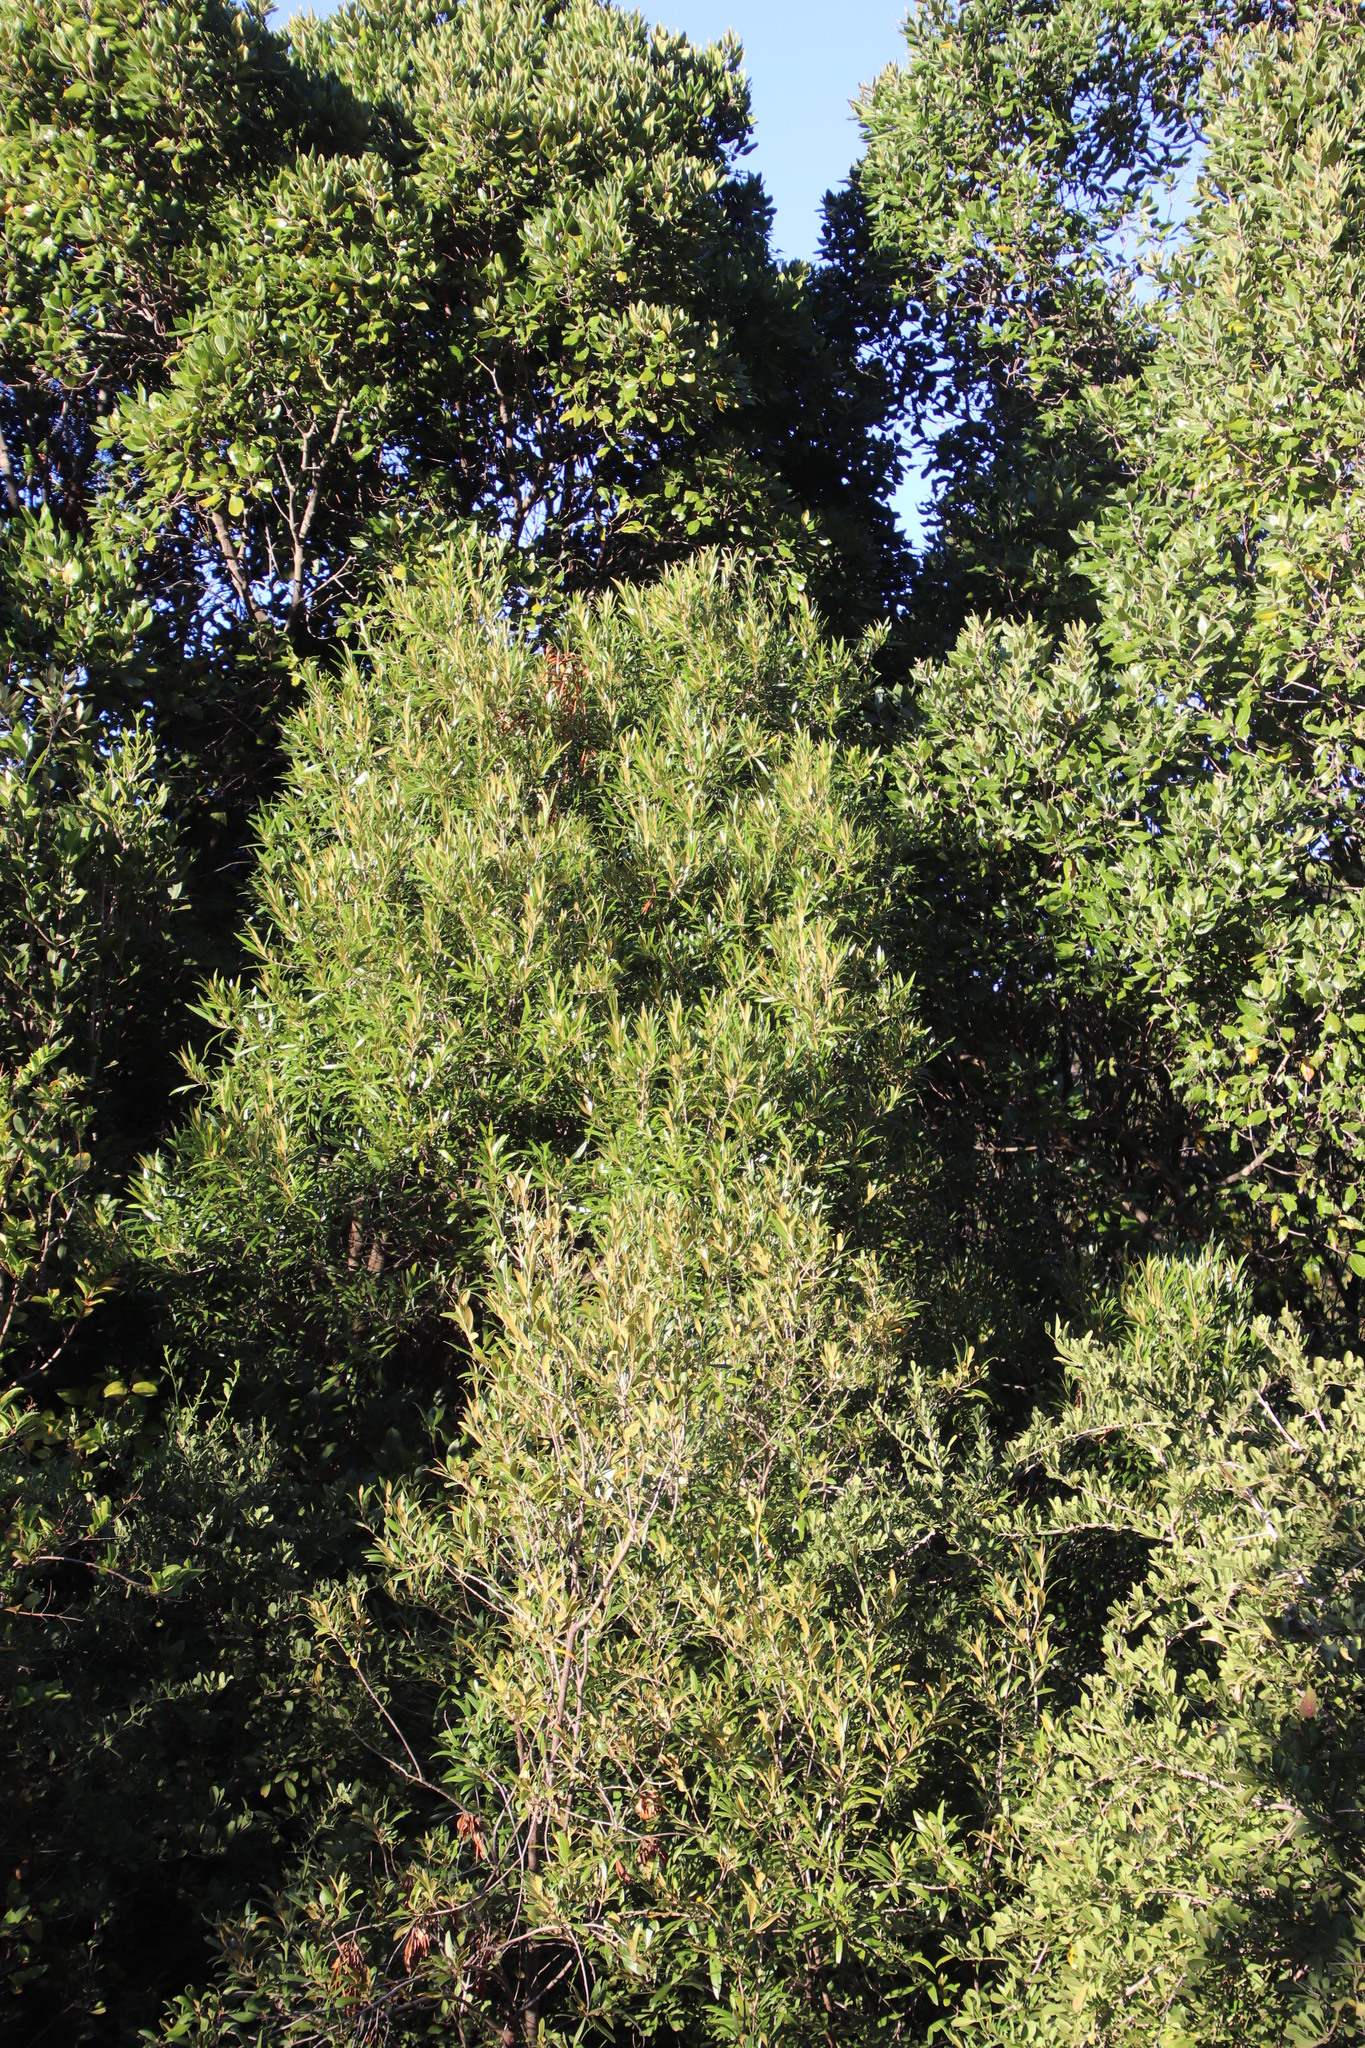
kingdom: Plantae
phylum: Tracheophyta
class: Magnoliopsida
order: Lamiales
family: Oleaceae
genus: Olea
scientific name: Olea europaea
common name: Olive
